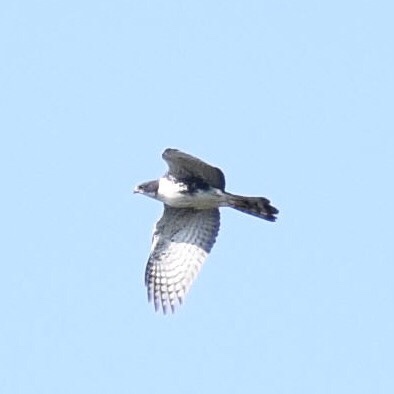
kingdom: Animalia
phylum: Chordata
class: Aves
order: Accipitriformes
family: Accipitridae
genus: Accipiter
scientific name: Accipiter melanoleucus
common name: Black sparrowhawk
